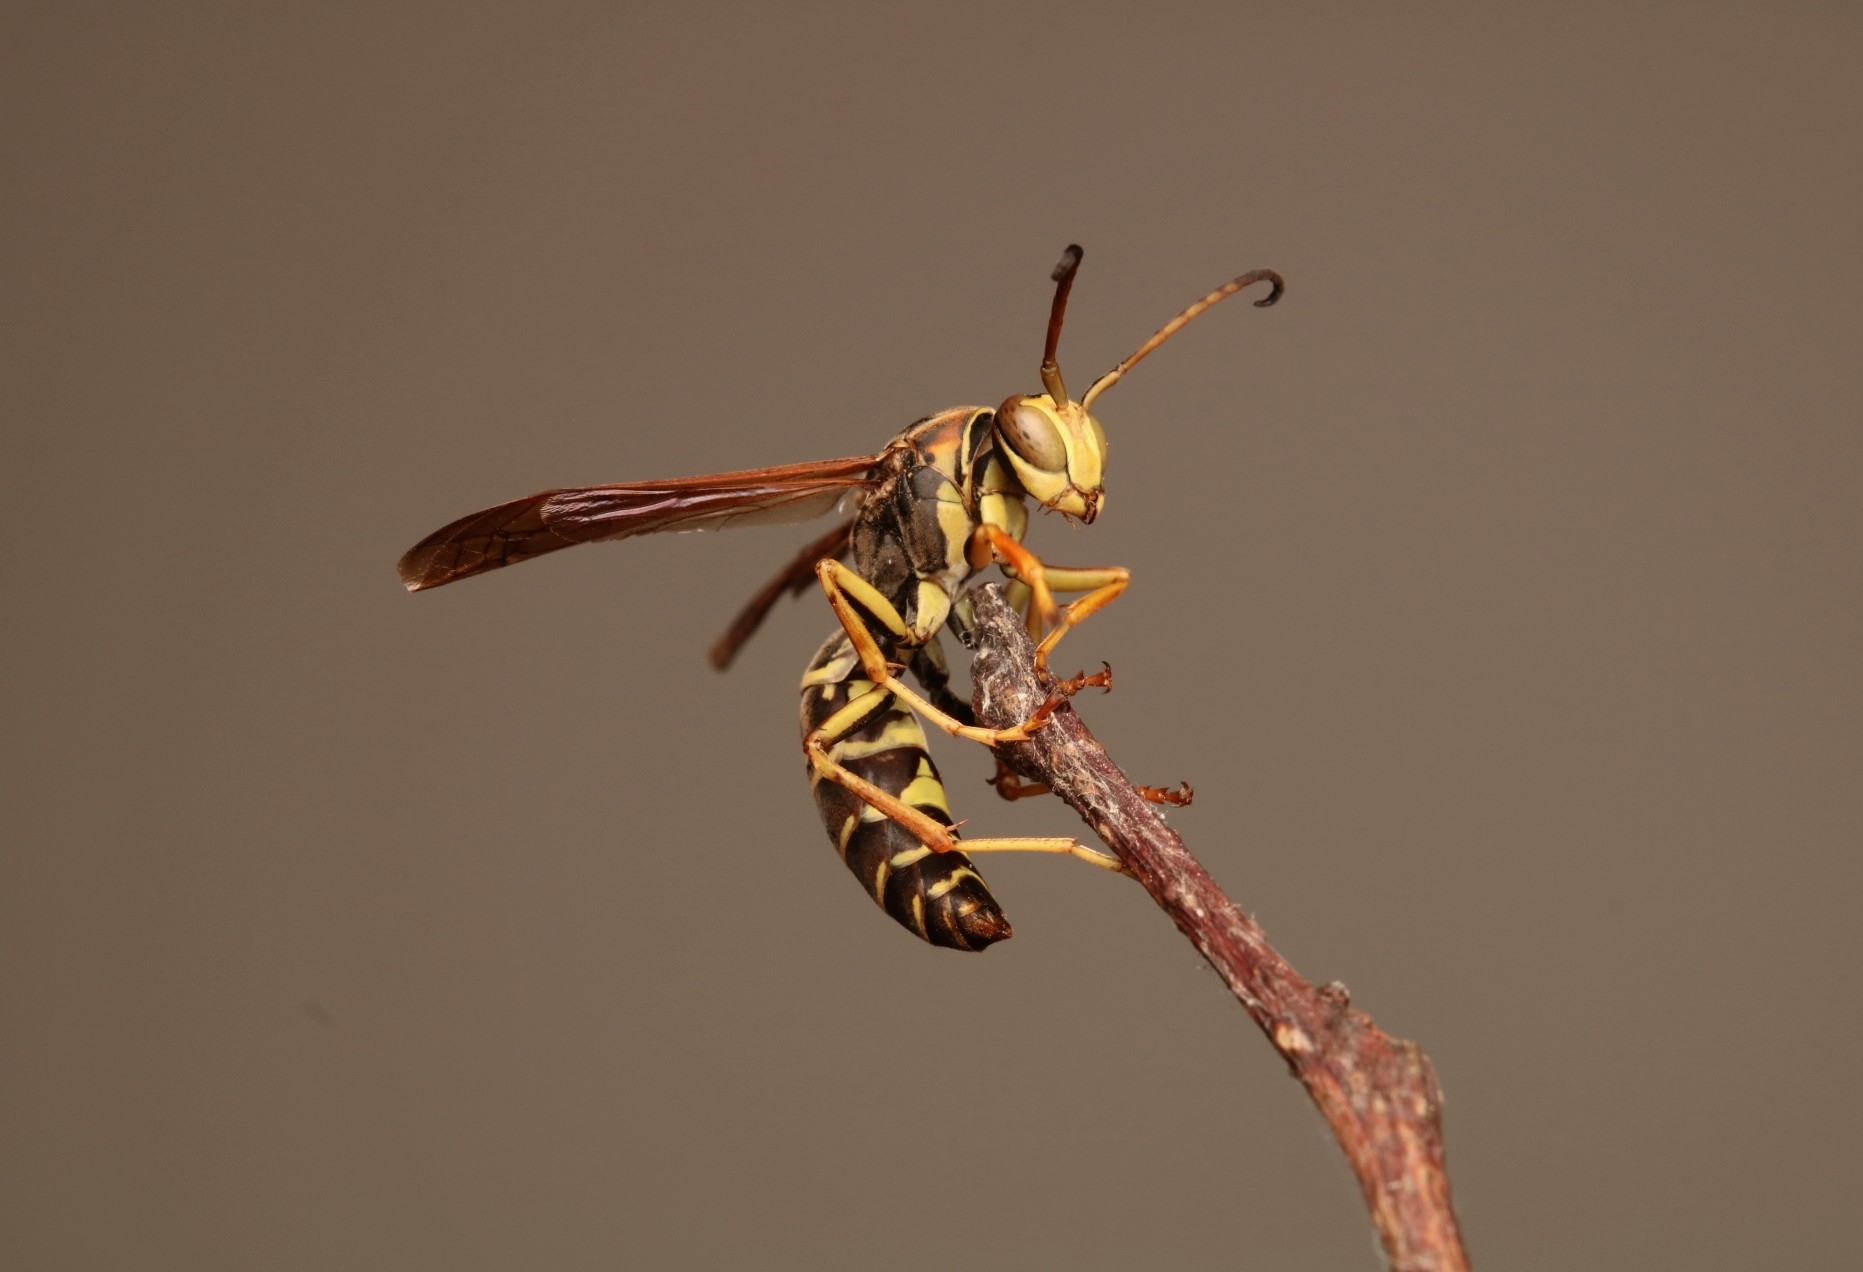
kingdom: Animalia
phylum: Arthropoda
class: Insecta
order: Hymenoptera
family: Eumenidae
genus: Polistes
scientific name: Polistes fuscatus
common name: Dark paper wasp
